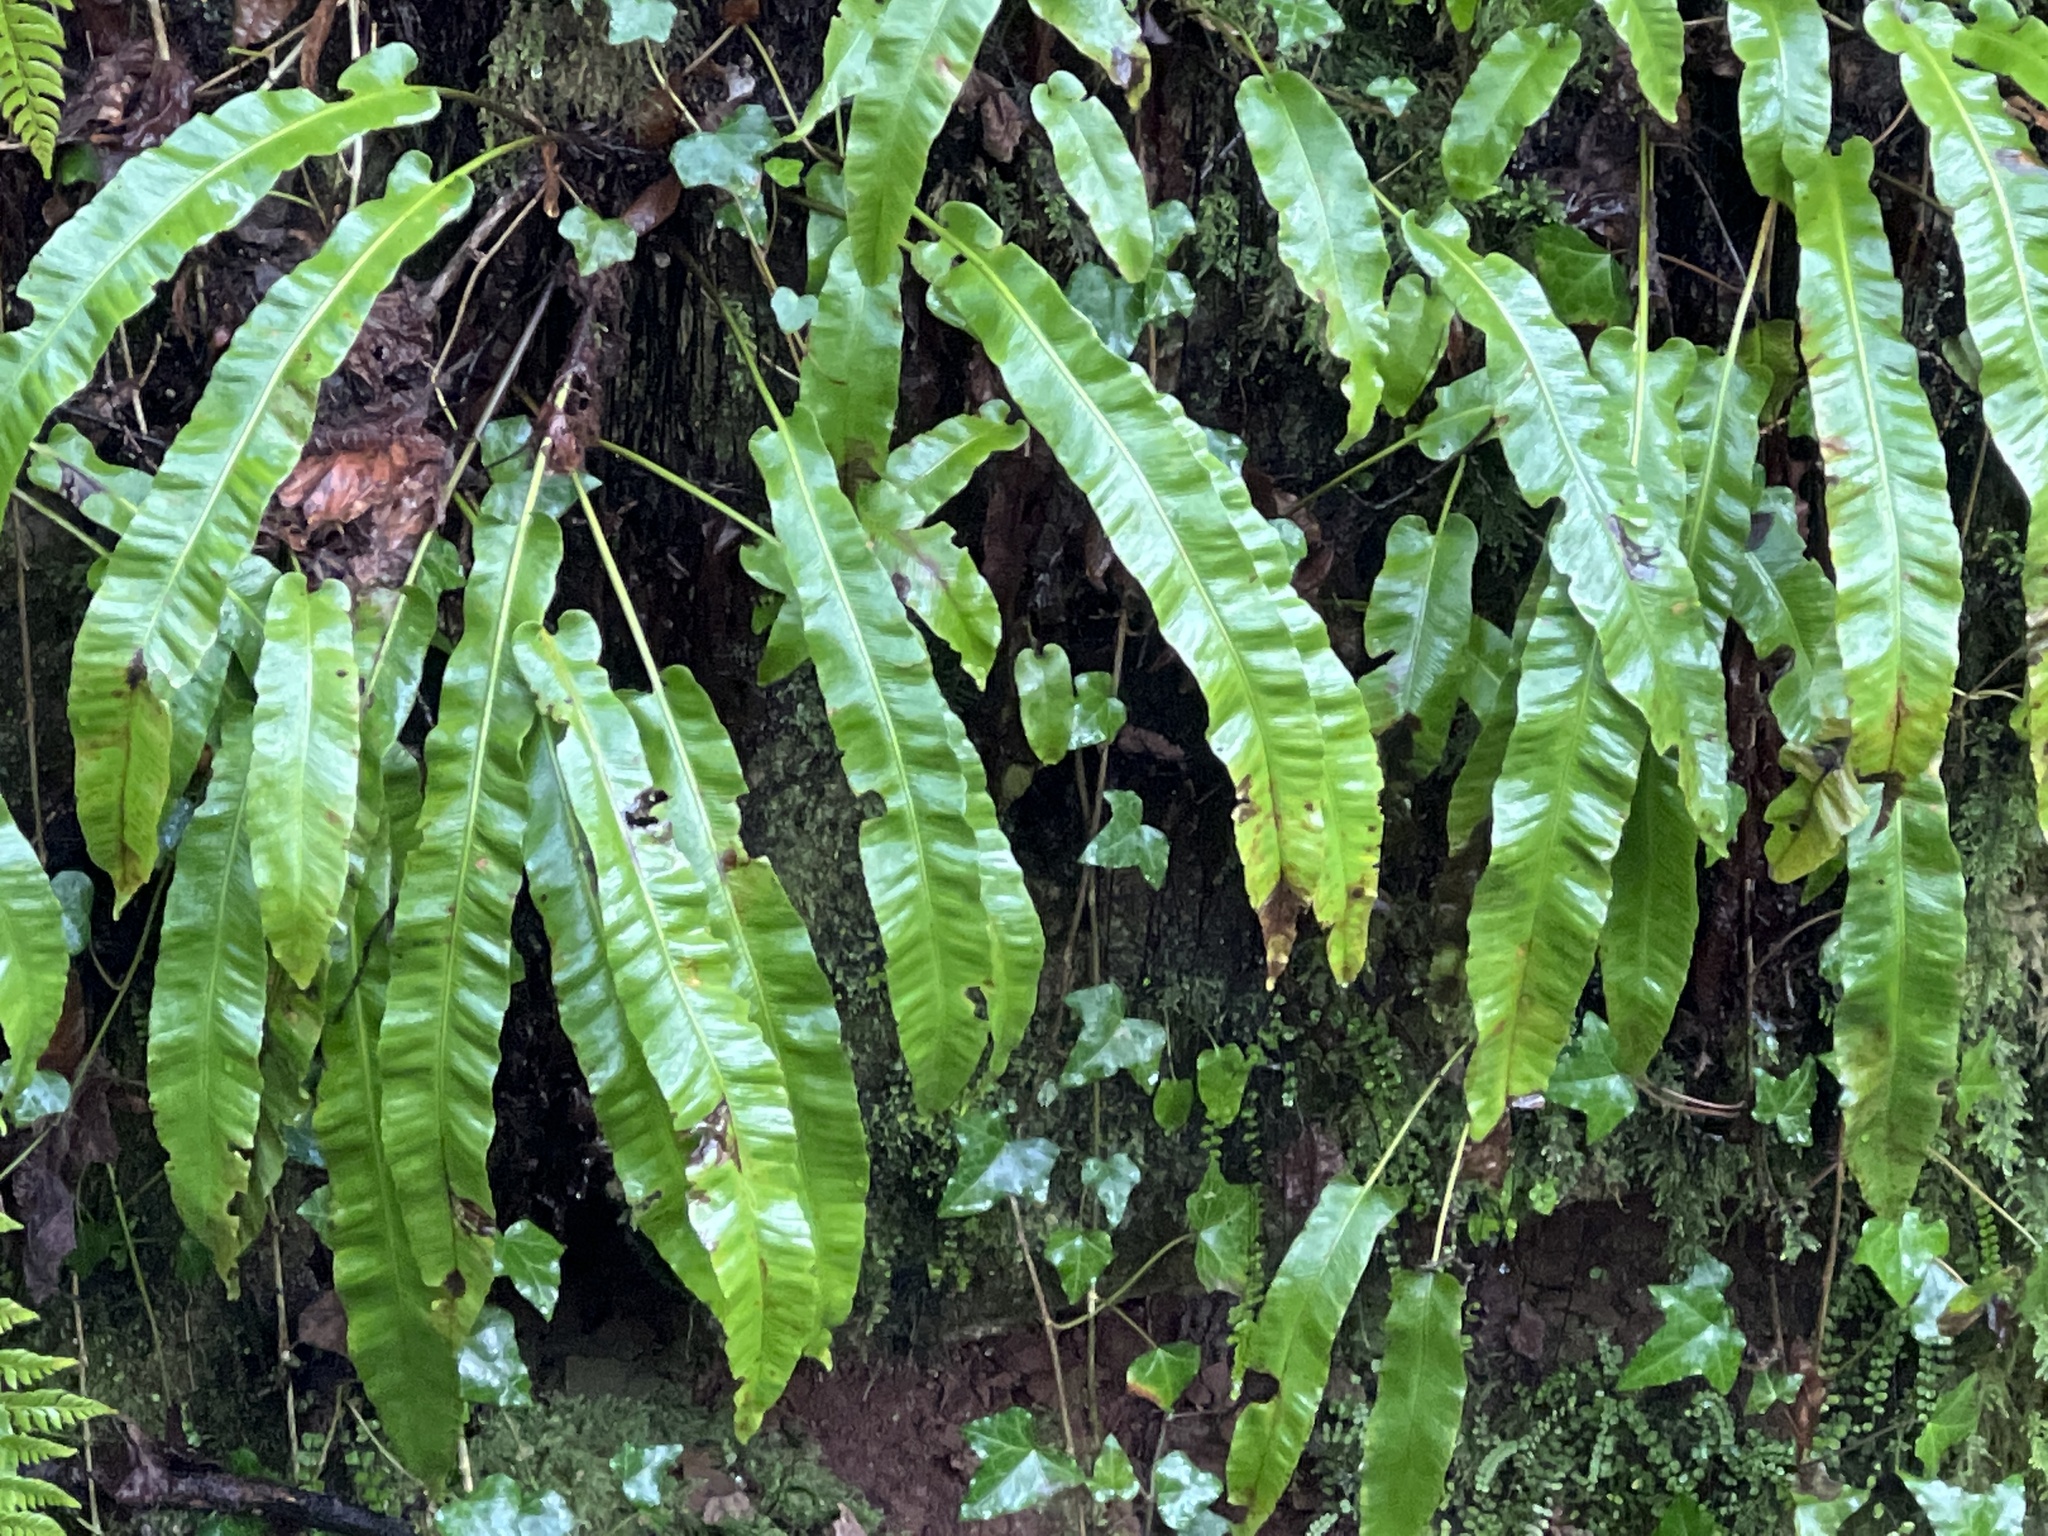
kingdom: Plantae
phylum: Tracheophyta
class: Polypodiopsida
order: Polypodiales
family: Aspleniaceae
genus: Asplenium
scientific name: Asplenium scolopendrium
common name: Hart's-tongue fern
